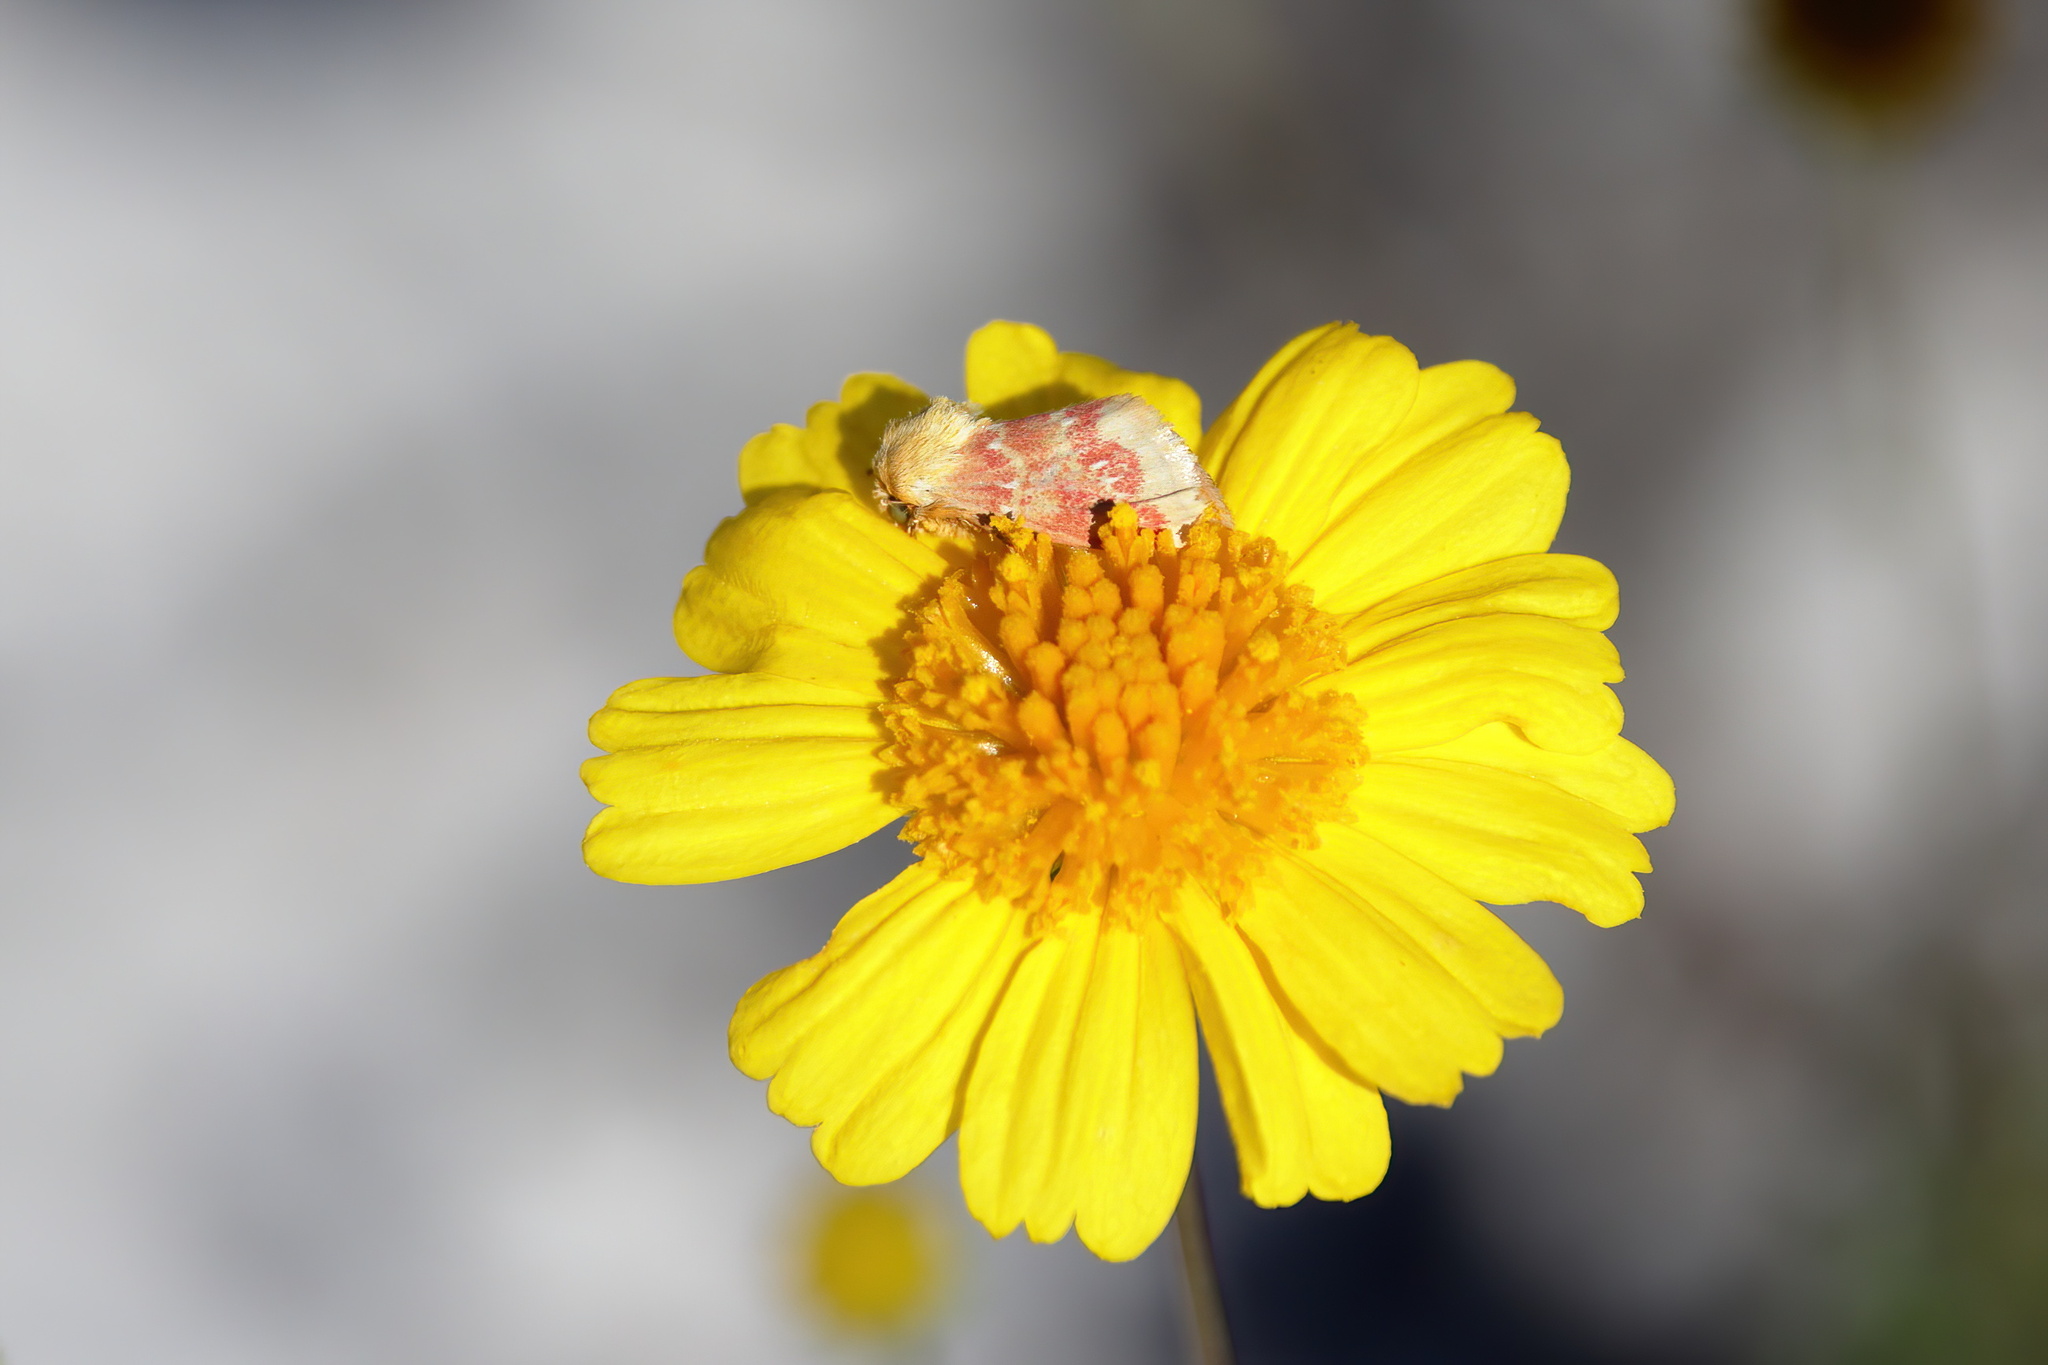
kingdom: Animalia
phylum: Arthropoda
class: Insecta
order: Lepidoptera
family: Noctuidae
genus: Schinia
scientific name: Schinia fulleri
